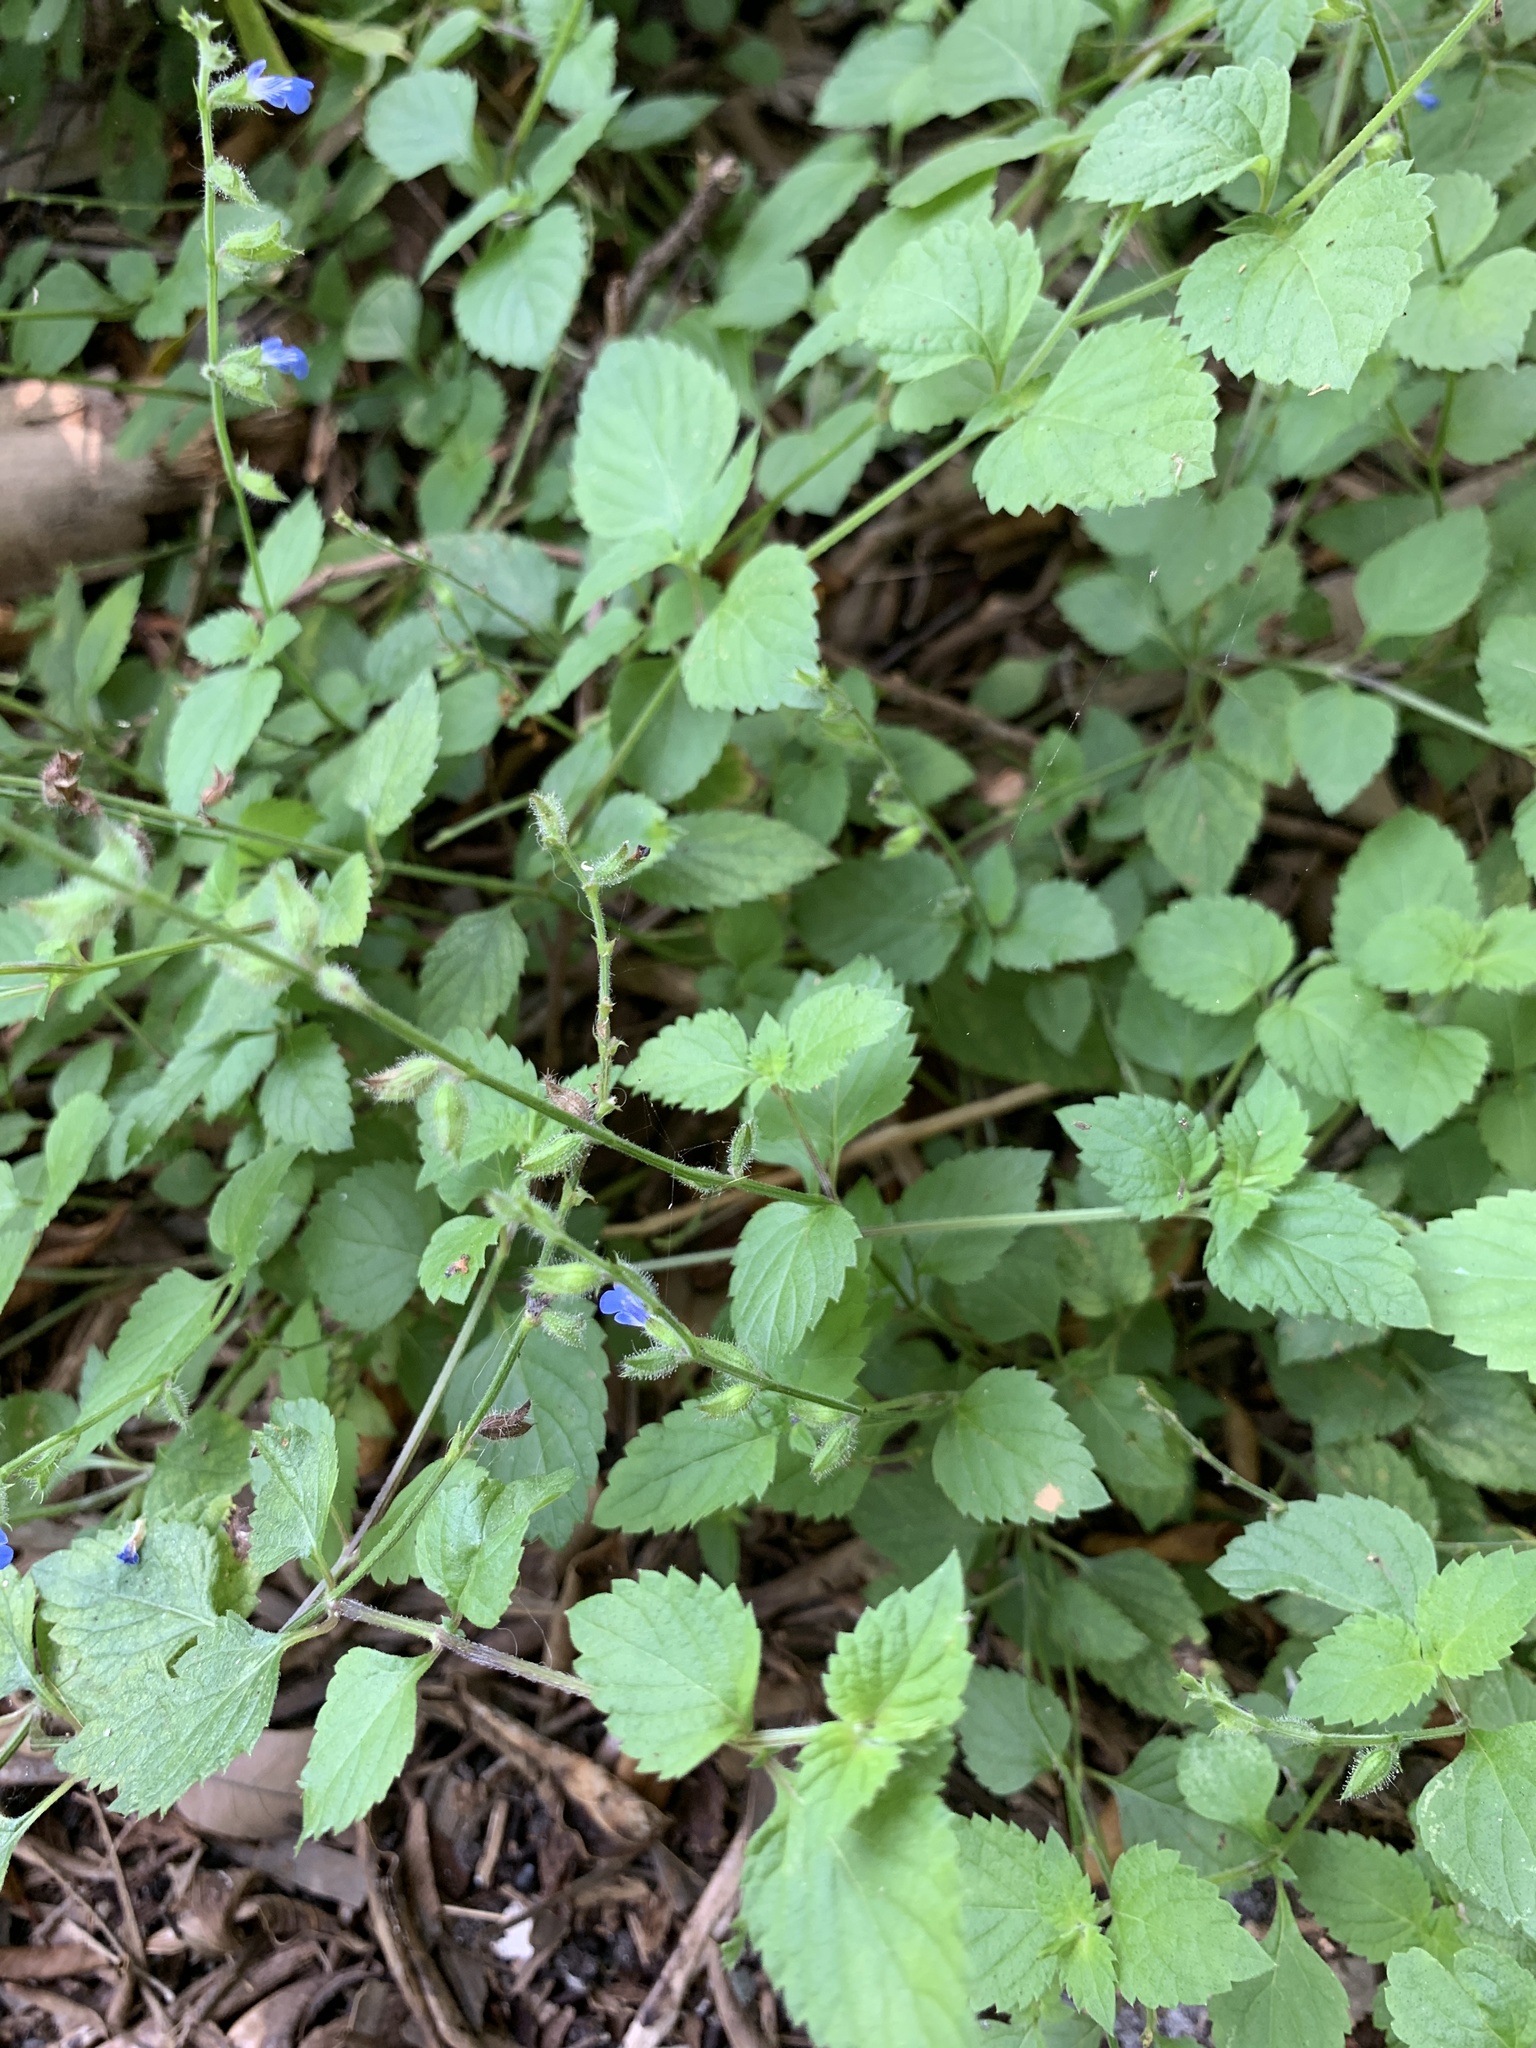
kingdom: Plantae
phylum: Tracheophyta
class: Magnoliopsida
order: Lamiales
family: Lamiaceae
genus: Salvia
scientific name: Salvia misella
